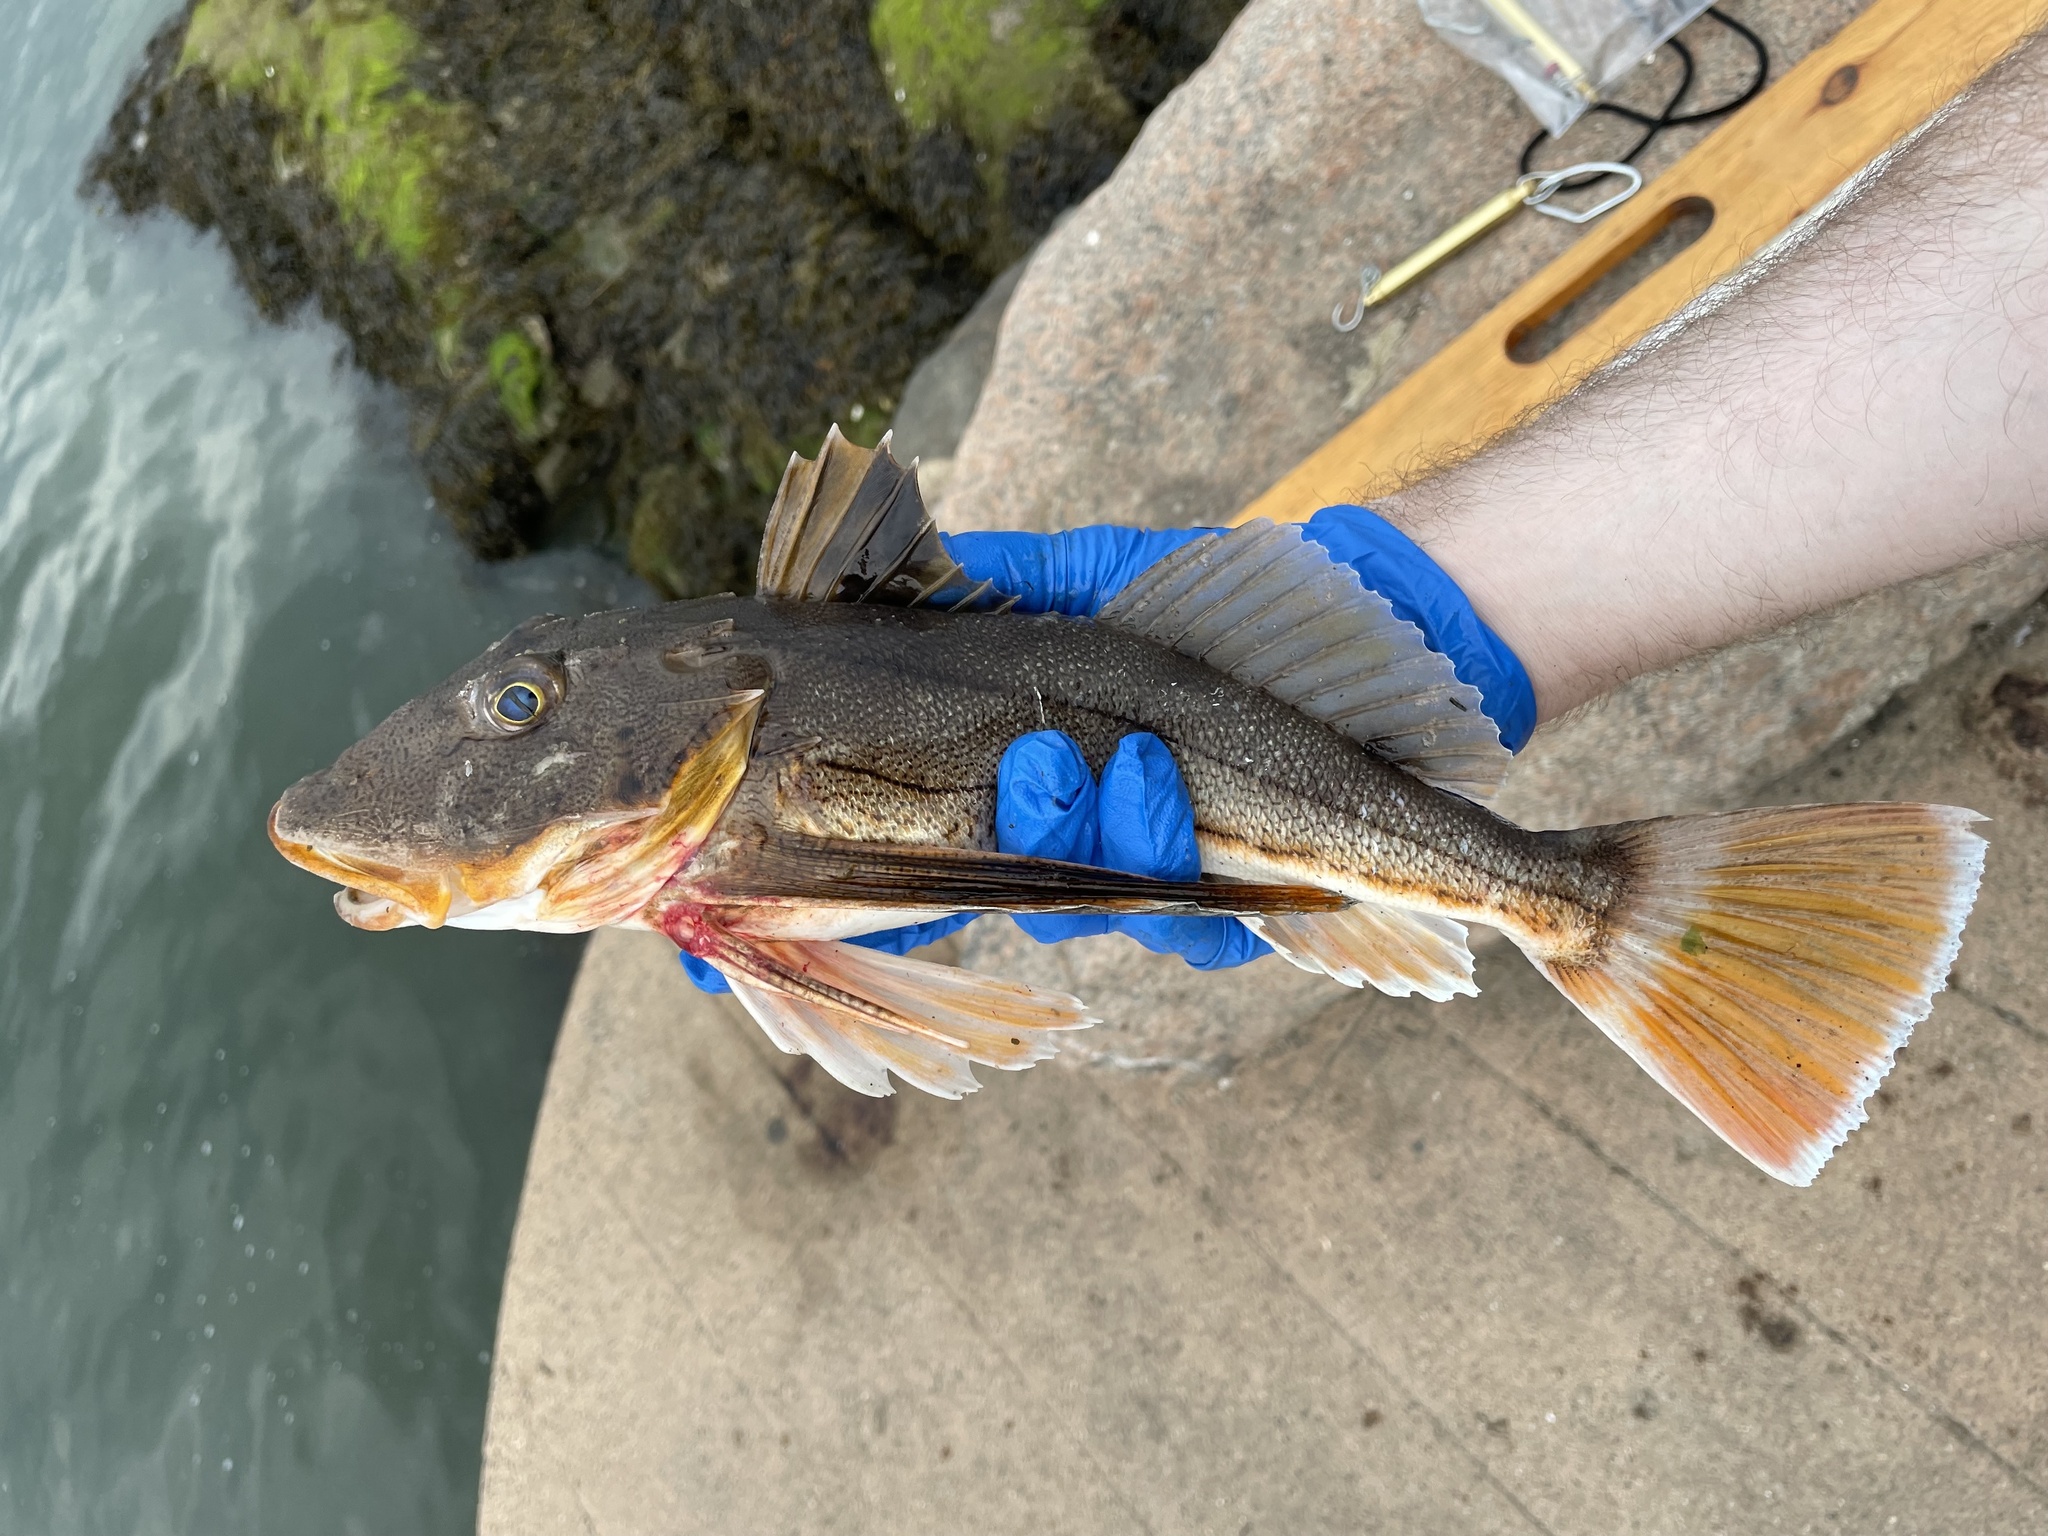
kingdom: Animalia
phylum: Chordata
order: Scorpaeniformes
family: Triglidae
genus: Prionotus
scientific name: Prionotus evolans
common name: Striped searobin
